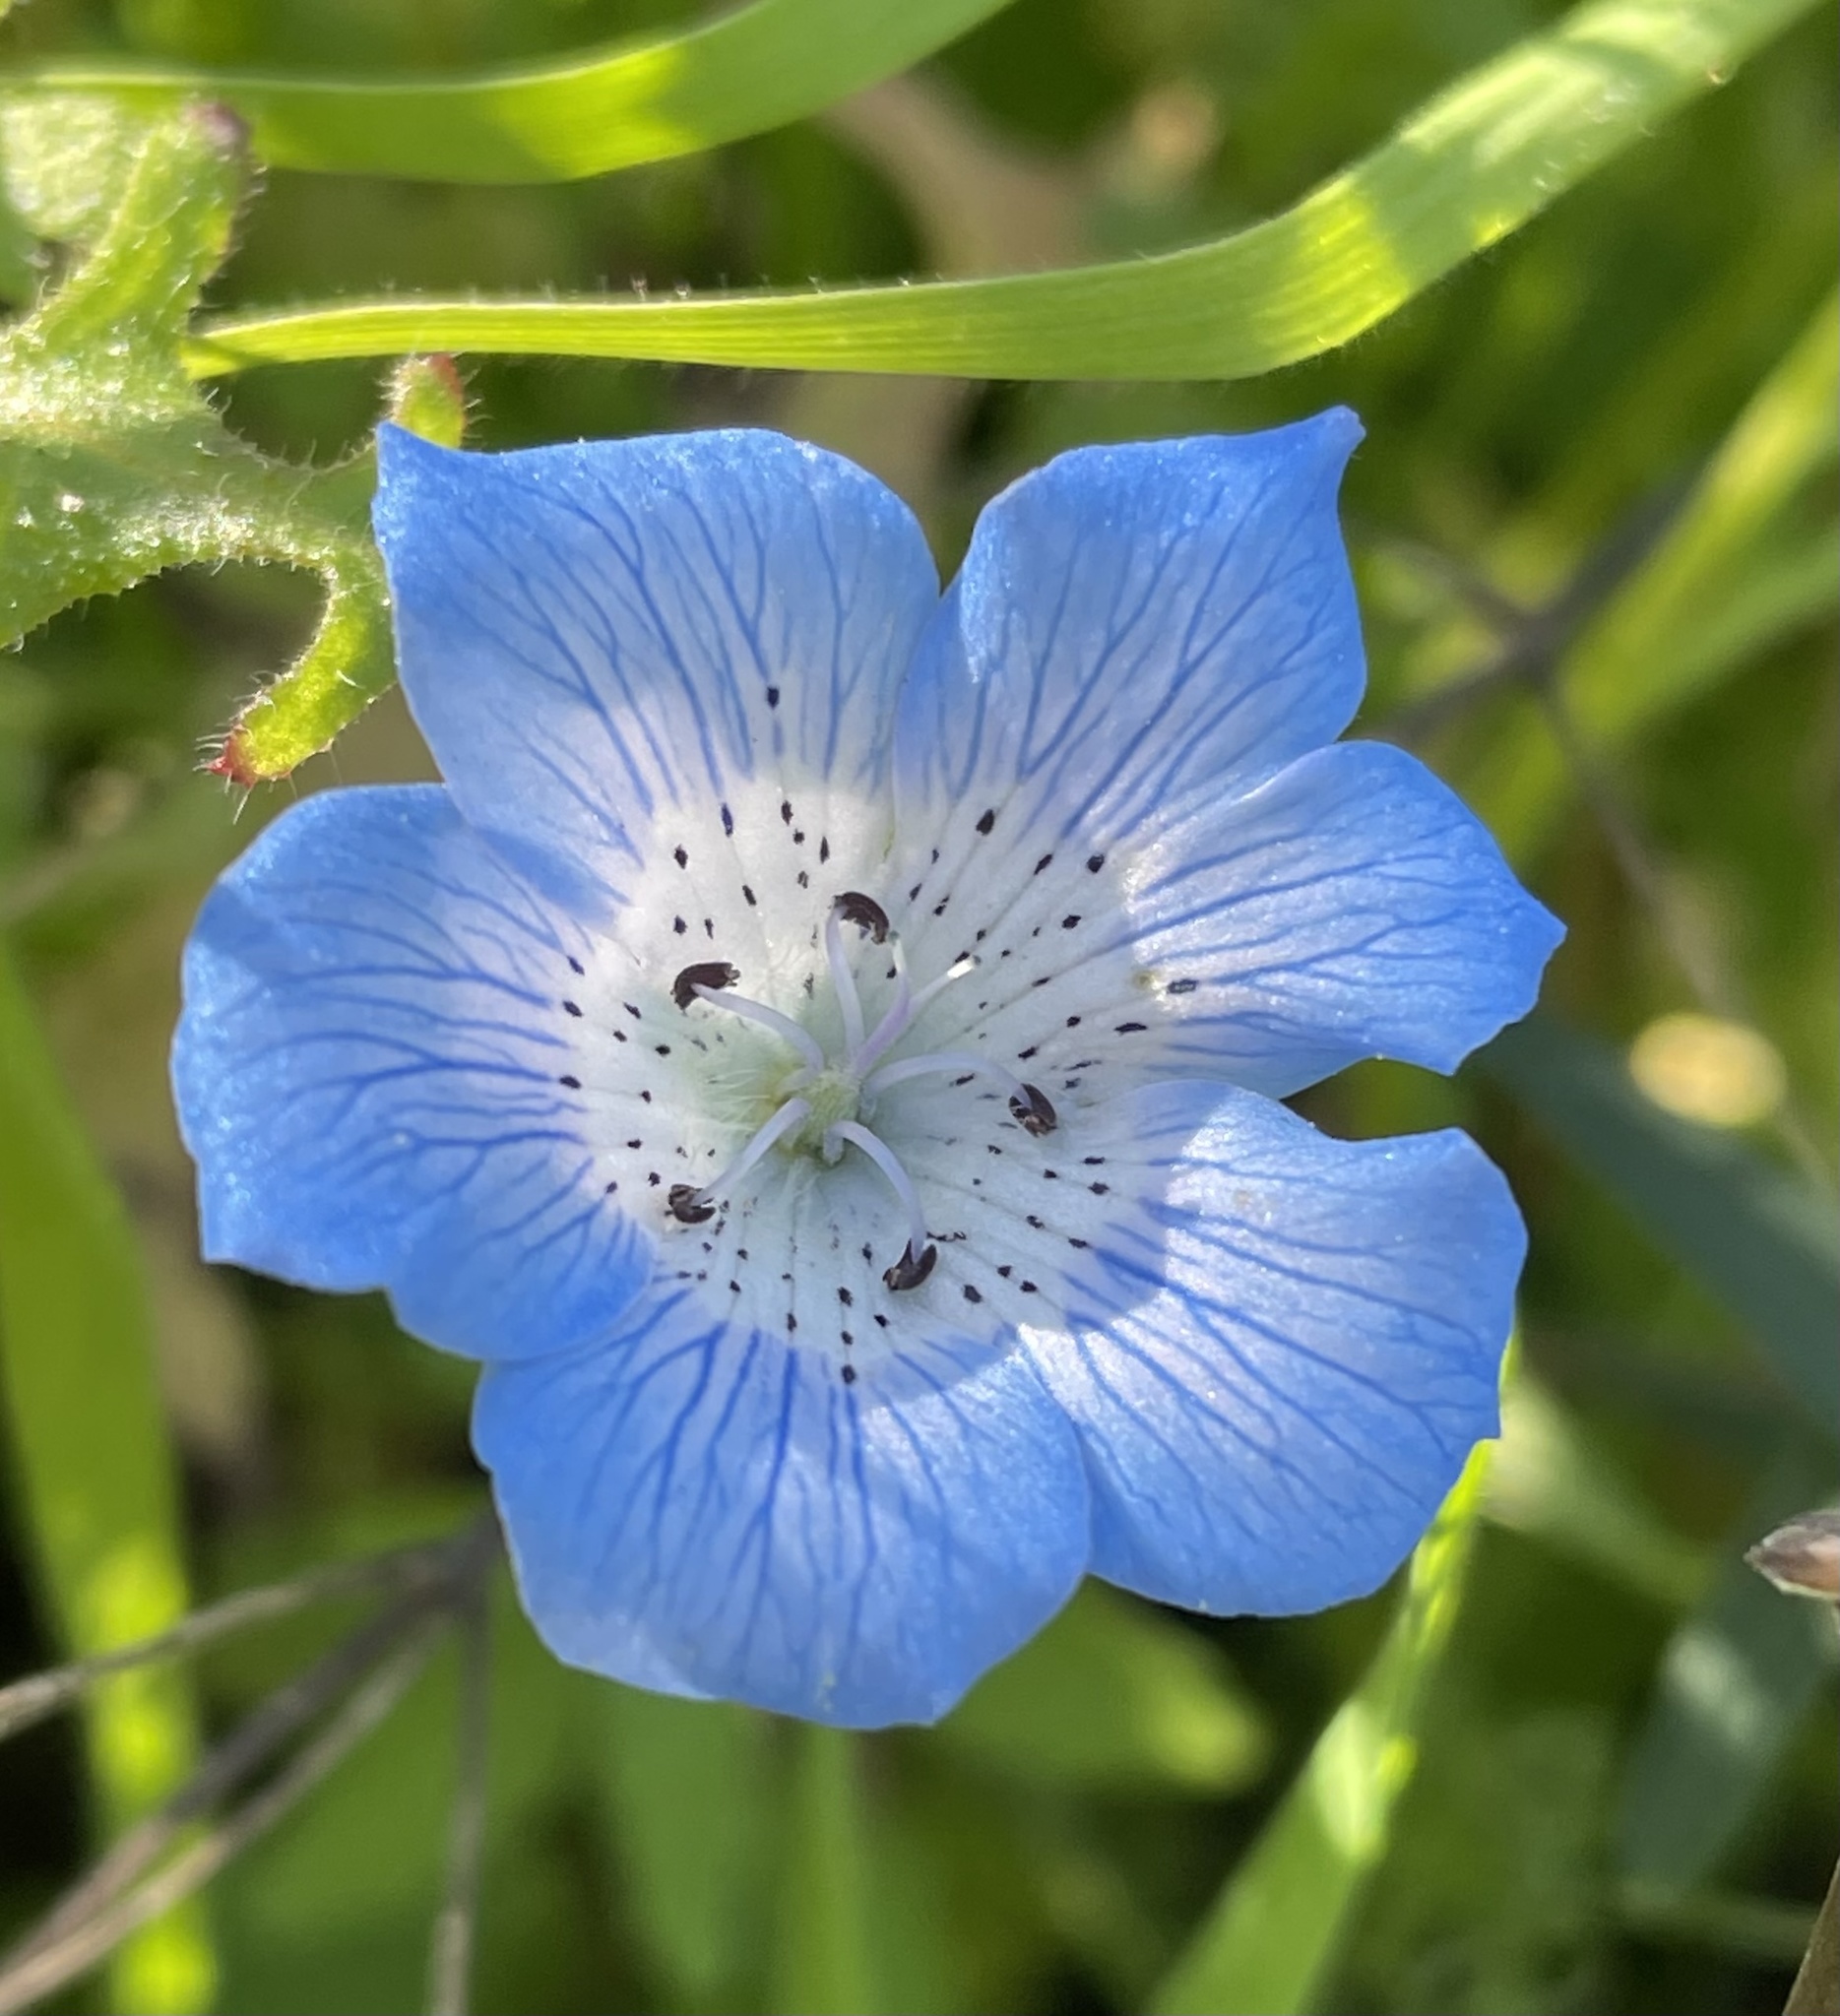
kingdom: Plantae
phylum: Tracheophyta
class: Magnoliopsida
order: Boraginales
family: Hydrophyllaceae
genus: Nemophila
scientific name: Nemophila menziesii
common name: Baby's-blue-eyes
